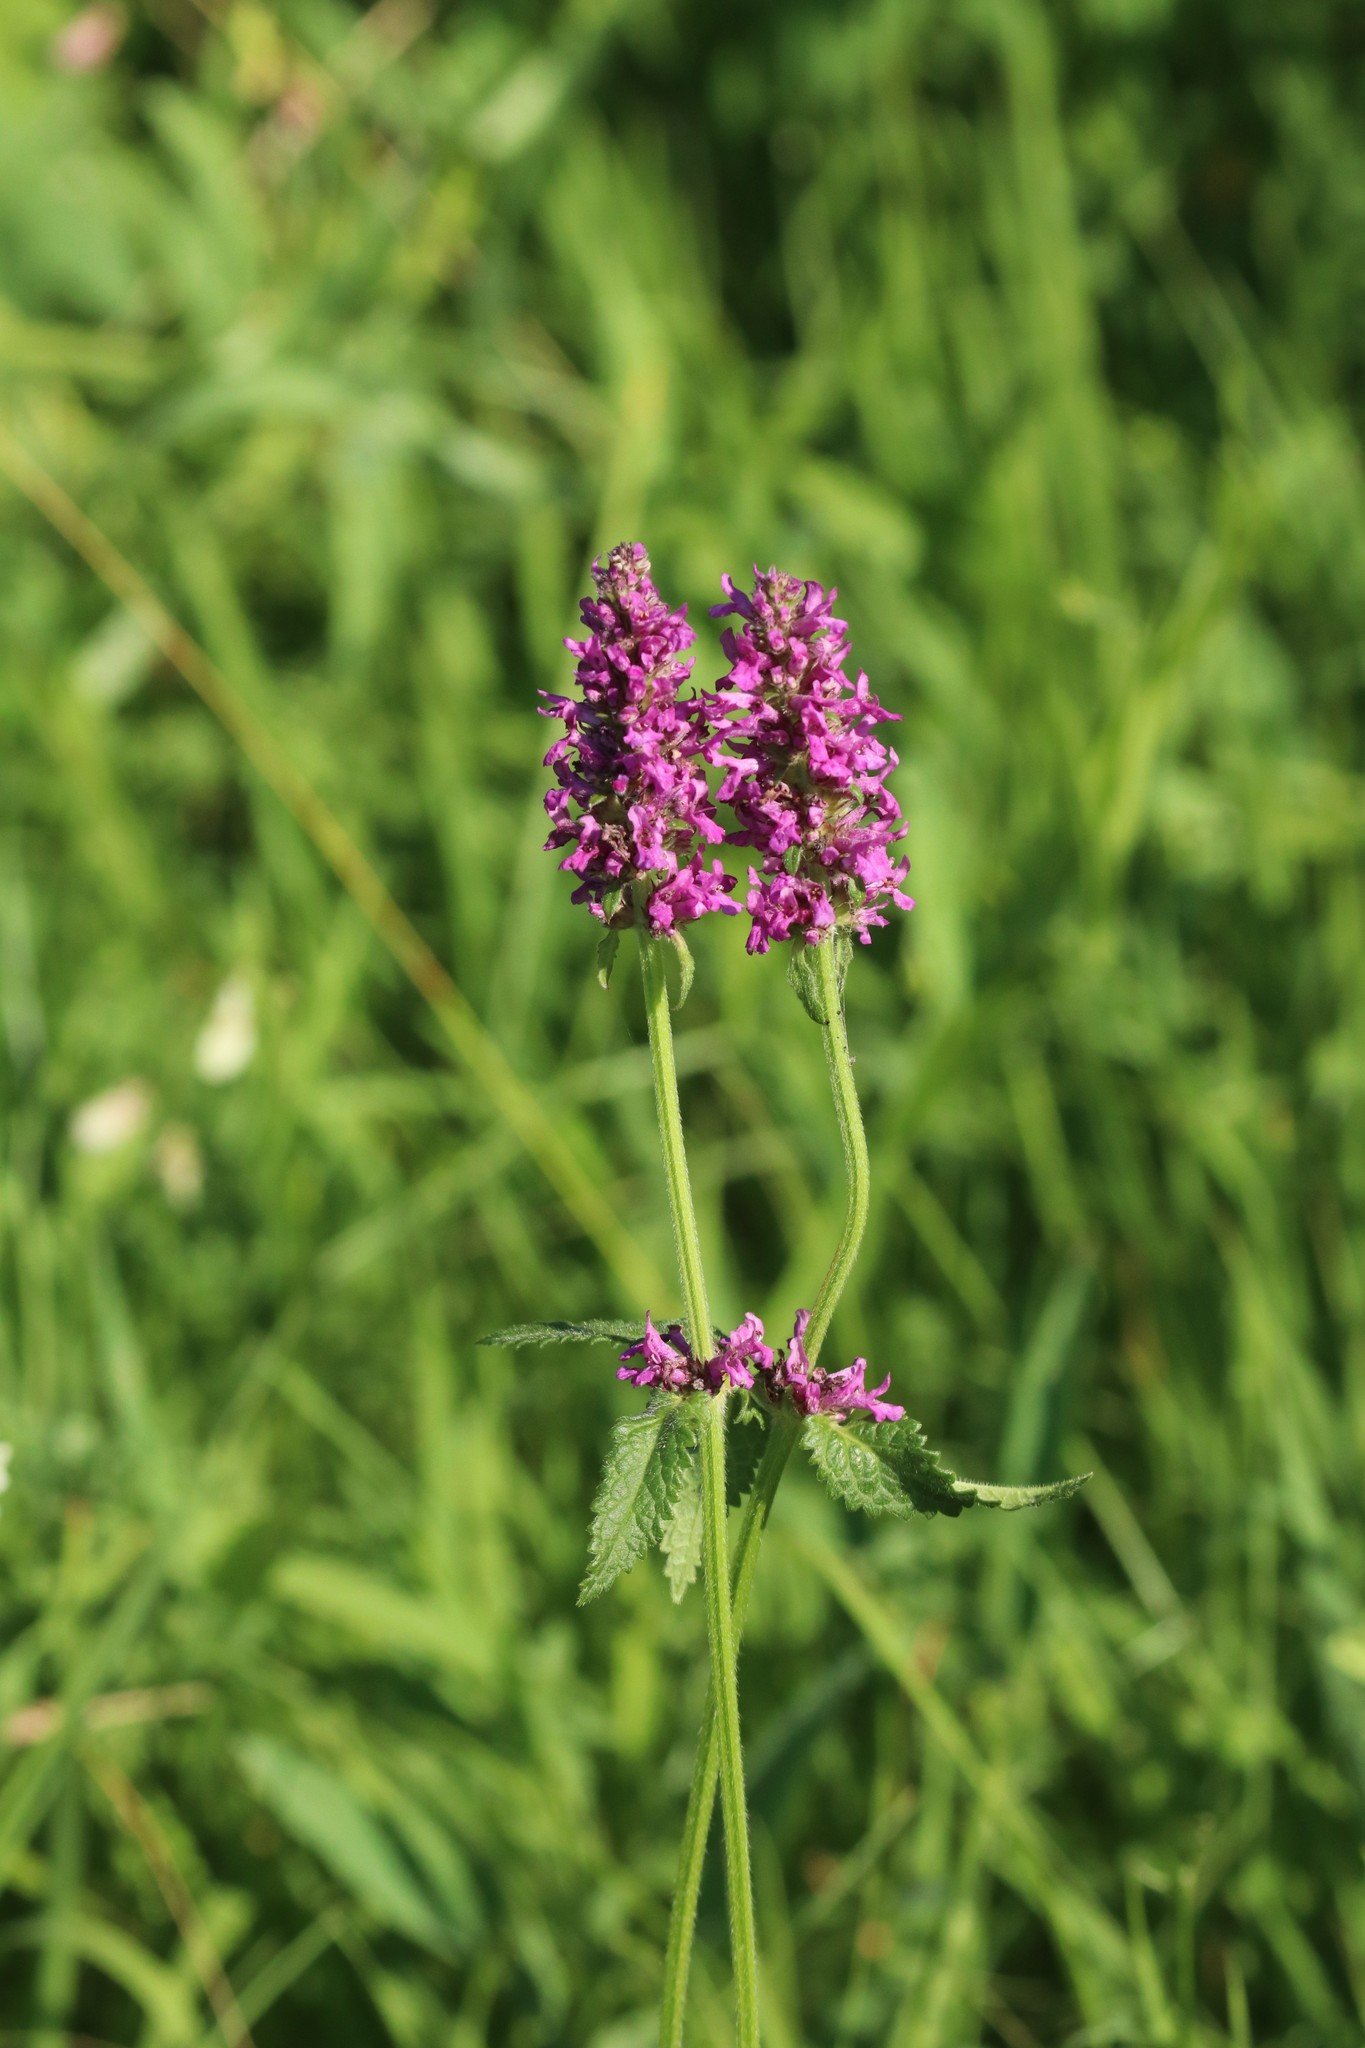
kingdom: Plantae
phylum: Tracheophyta
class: Magnoliopsida
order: Lamiales
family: Lamiaceae
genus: Betonica
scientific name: Betonica officinalis
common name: Bishop's-wort
